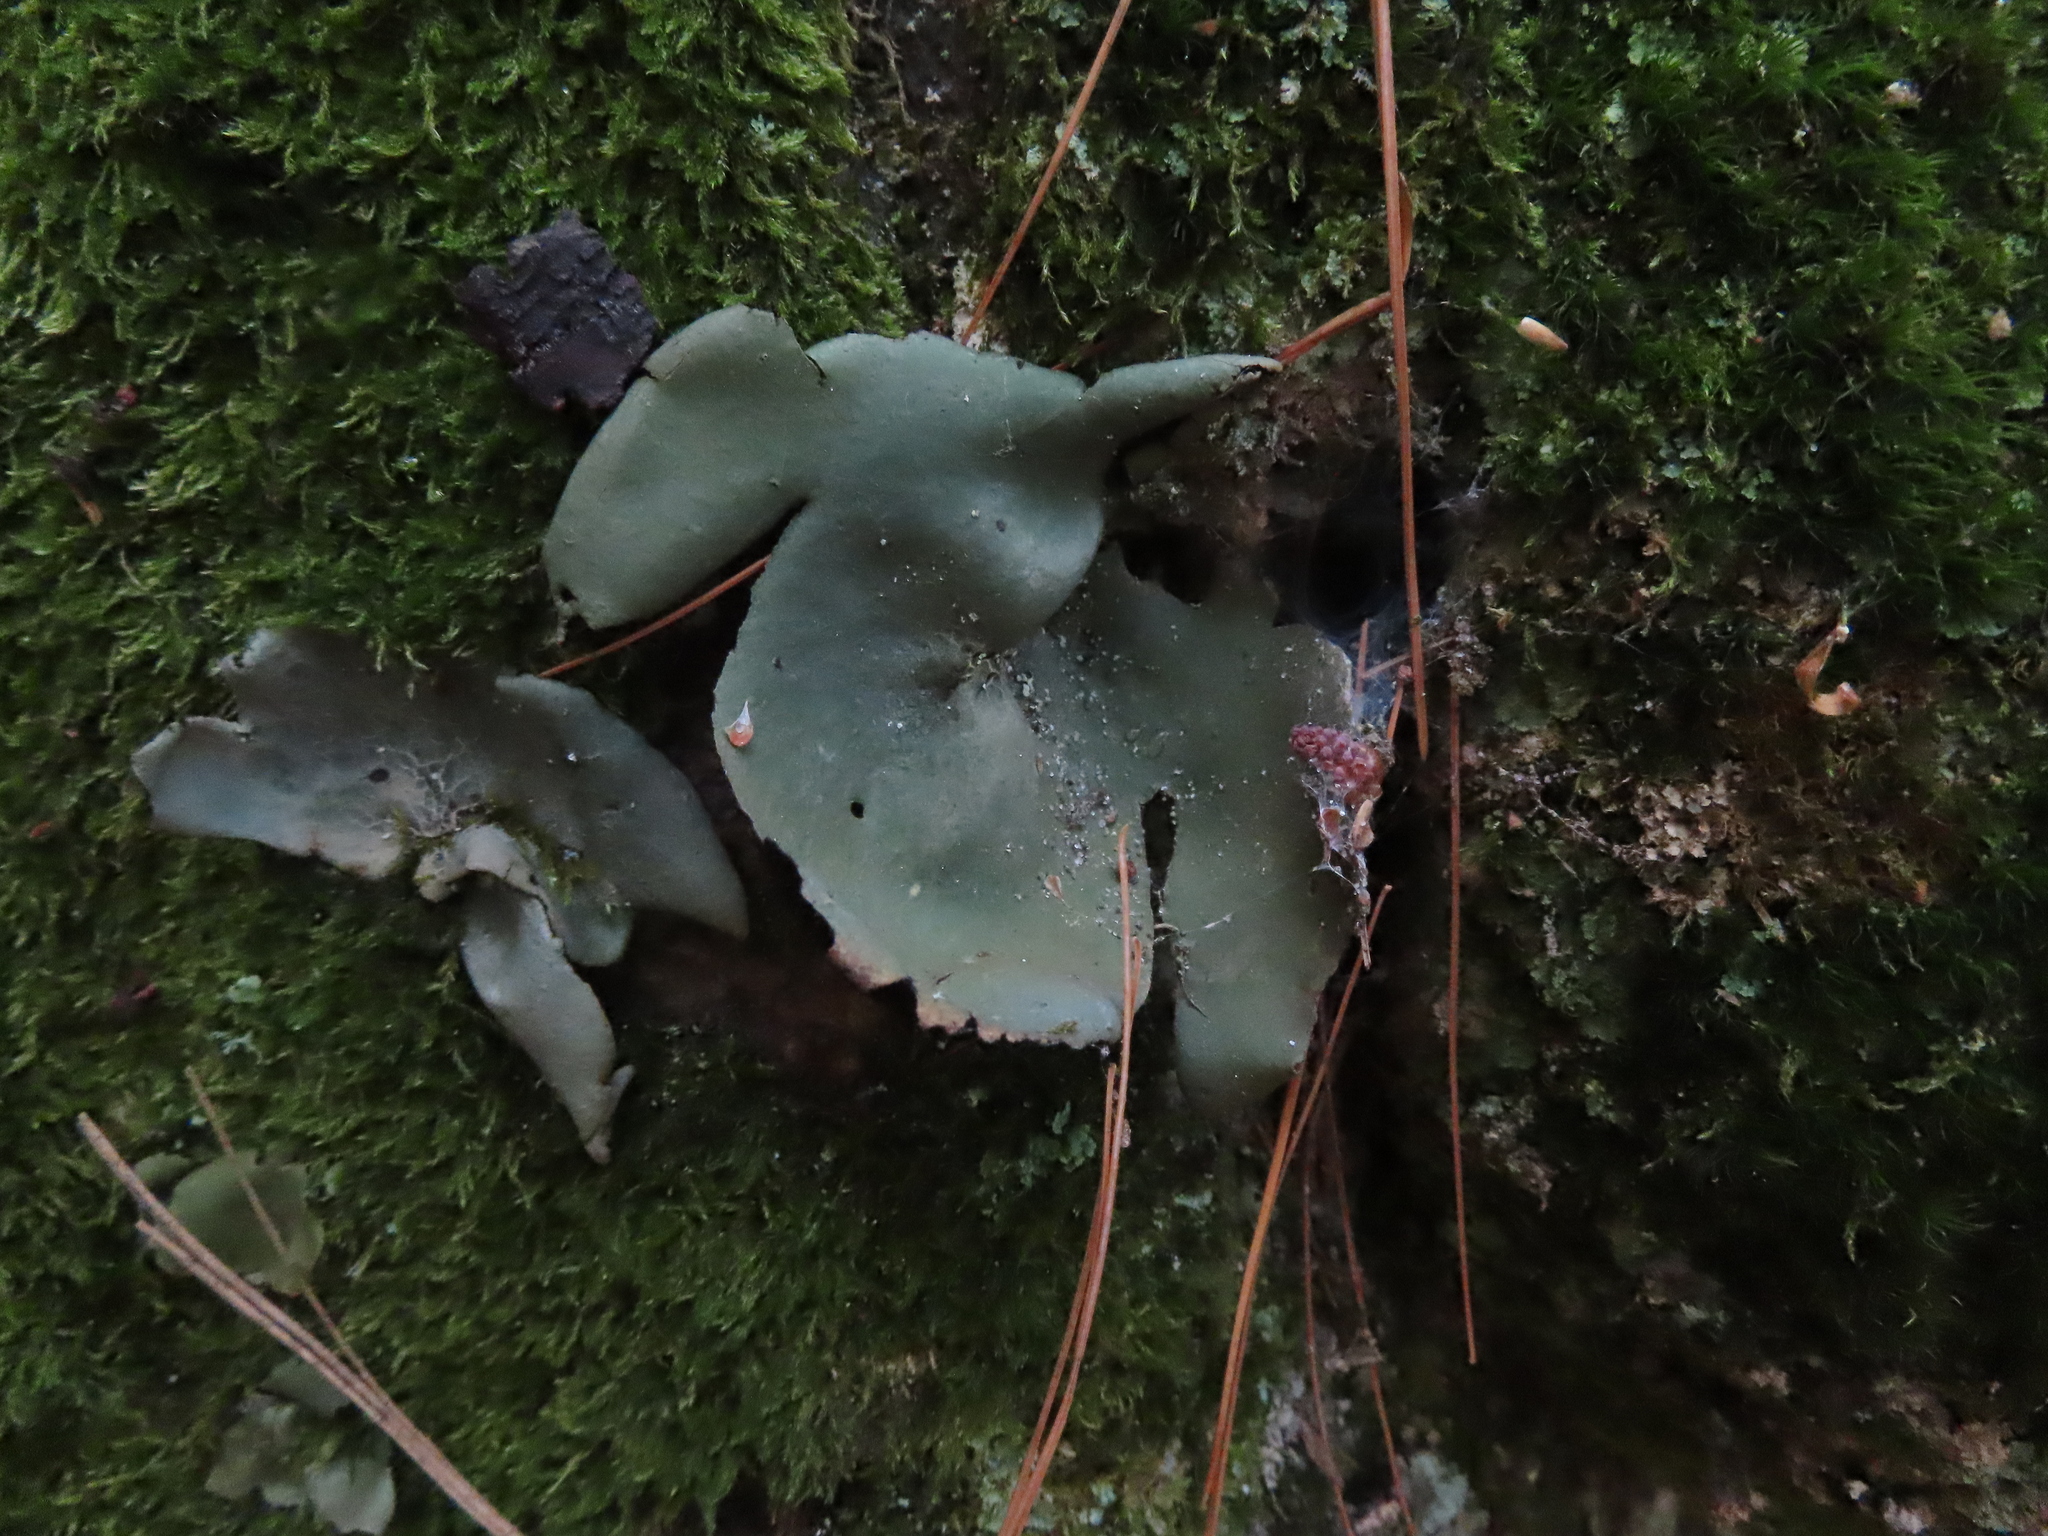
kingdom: Fungi
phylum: Ascomycota
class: Lecanoromycetes
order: Umbilicariales
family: Umbilicariaceae
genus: Umbilicaria
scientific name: Umbilicaria mammulata
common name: Smooth rock tripe
